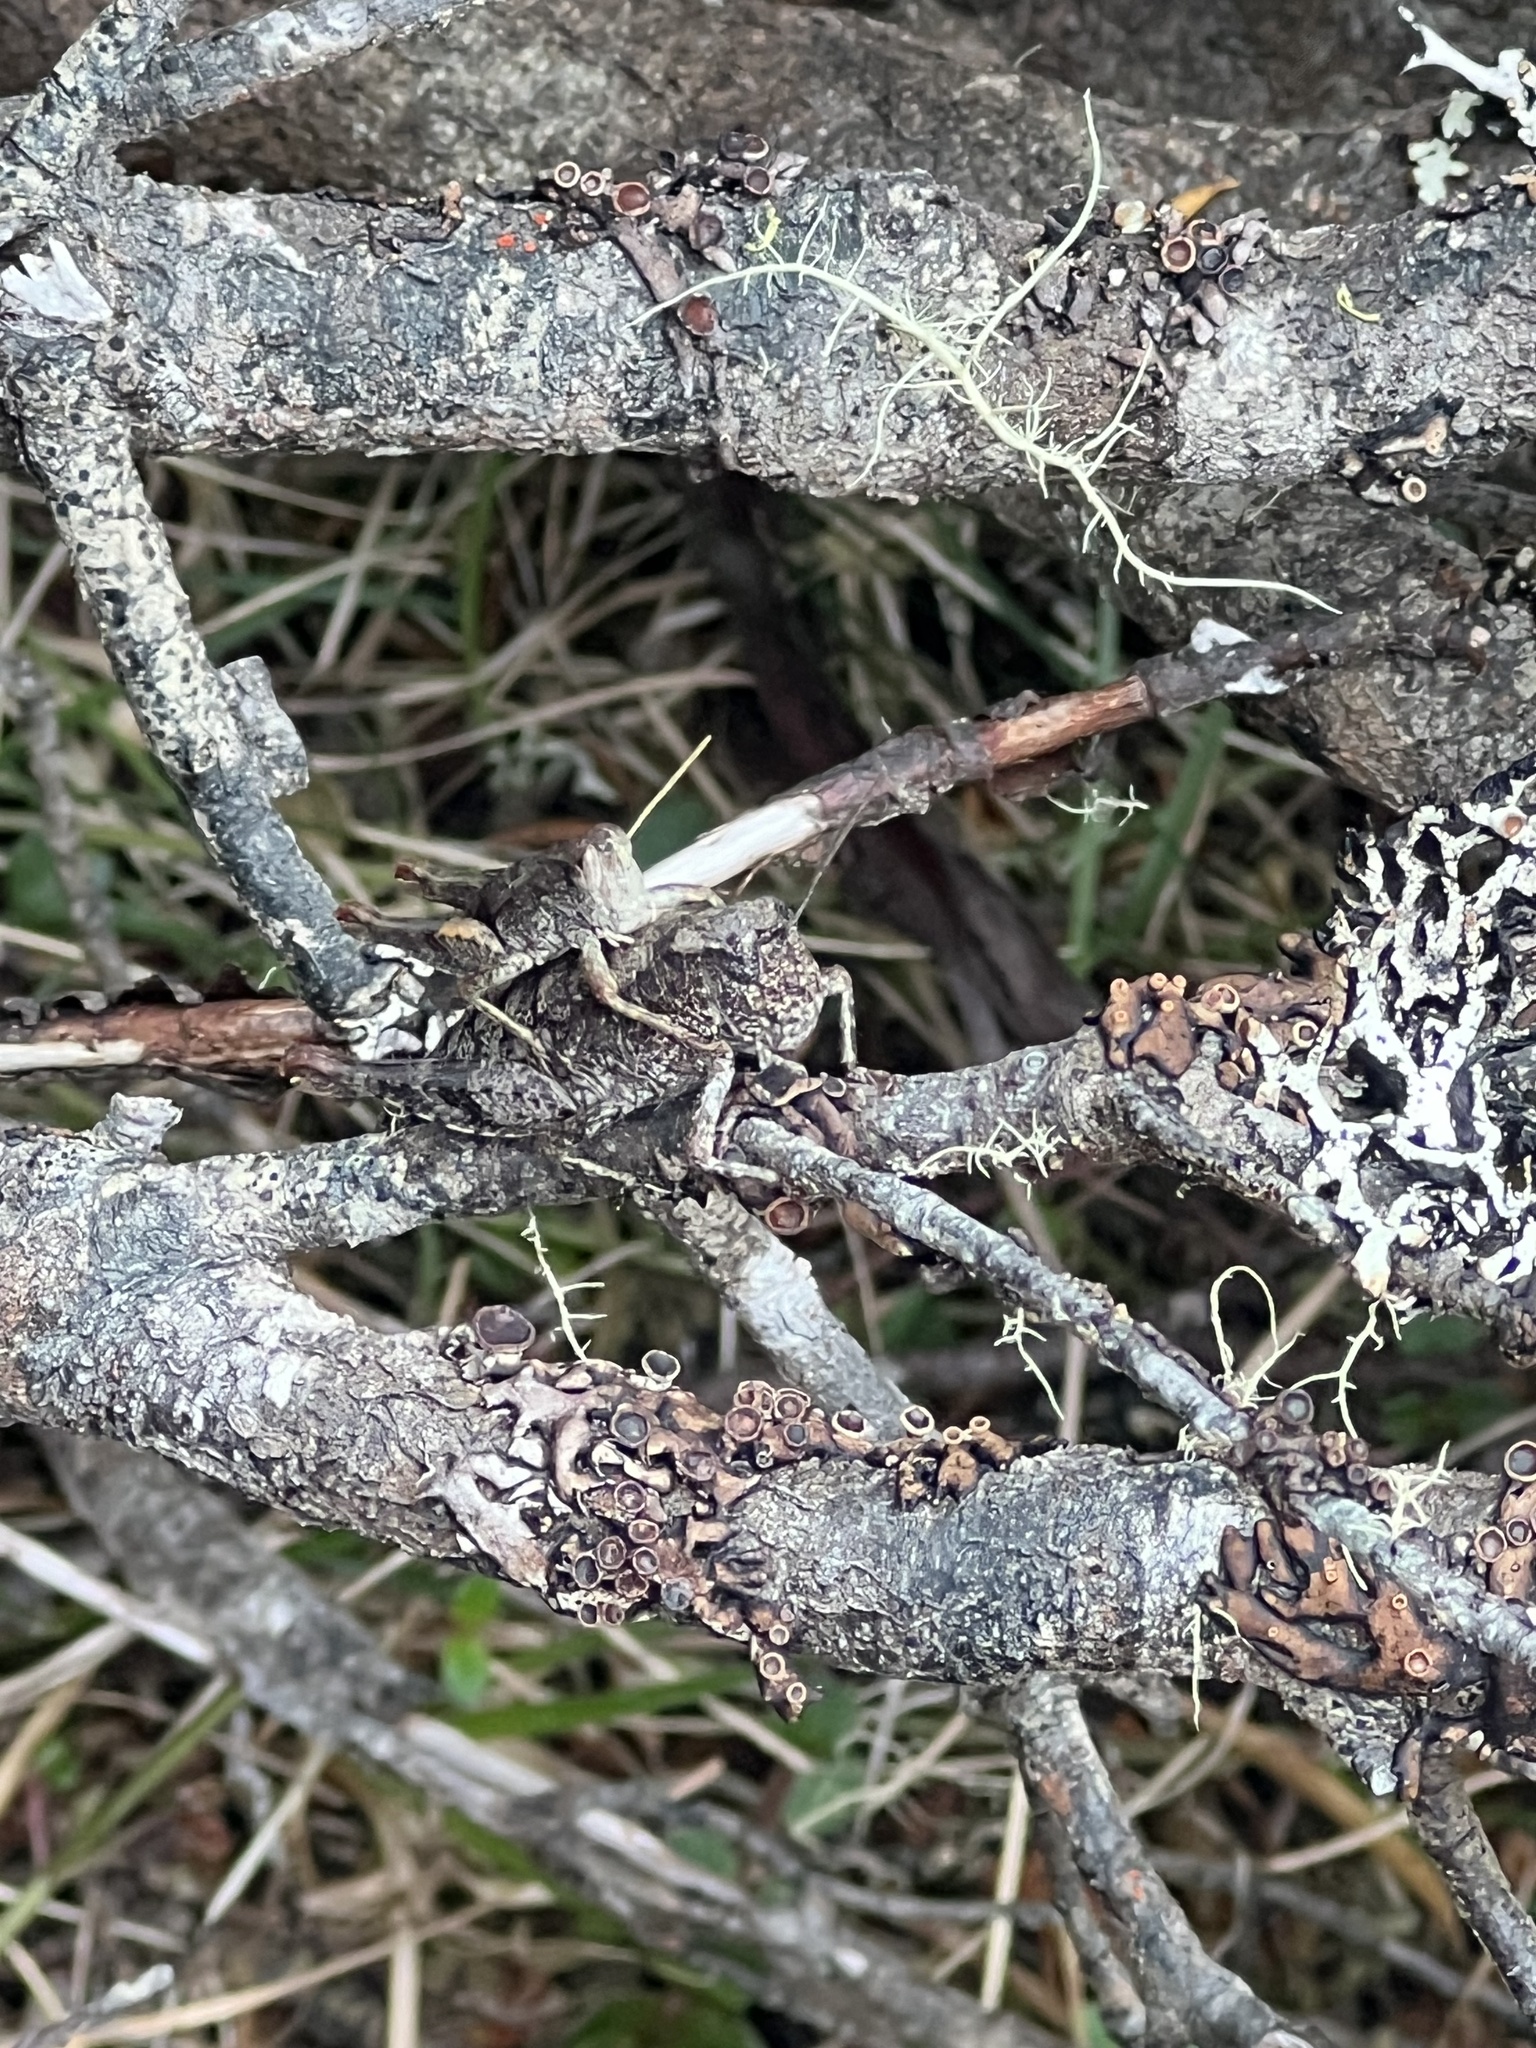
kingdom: Animalia
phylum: Arthropoda
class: Insecta
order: Orthoptera
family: Acrididae
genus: Tasmaniacris
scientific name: Tasmaniacris tasmaniensis
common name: Tasmanian grasshopper
